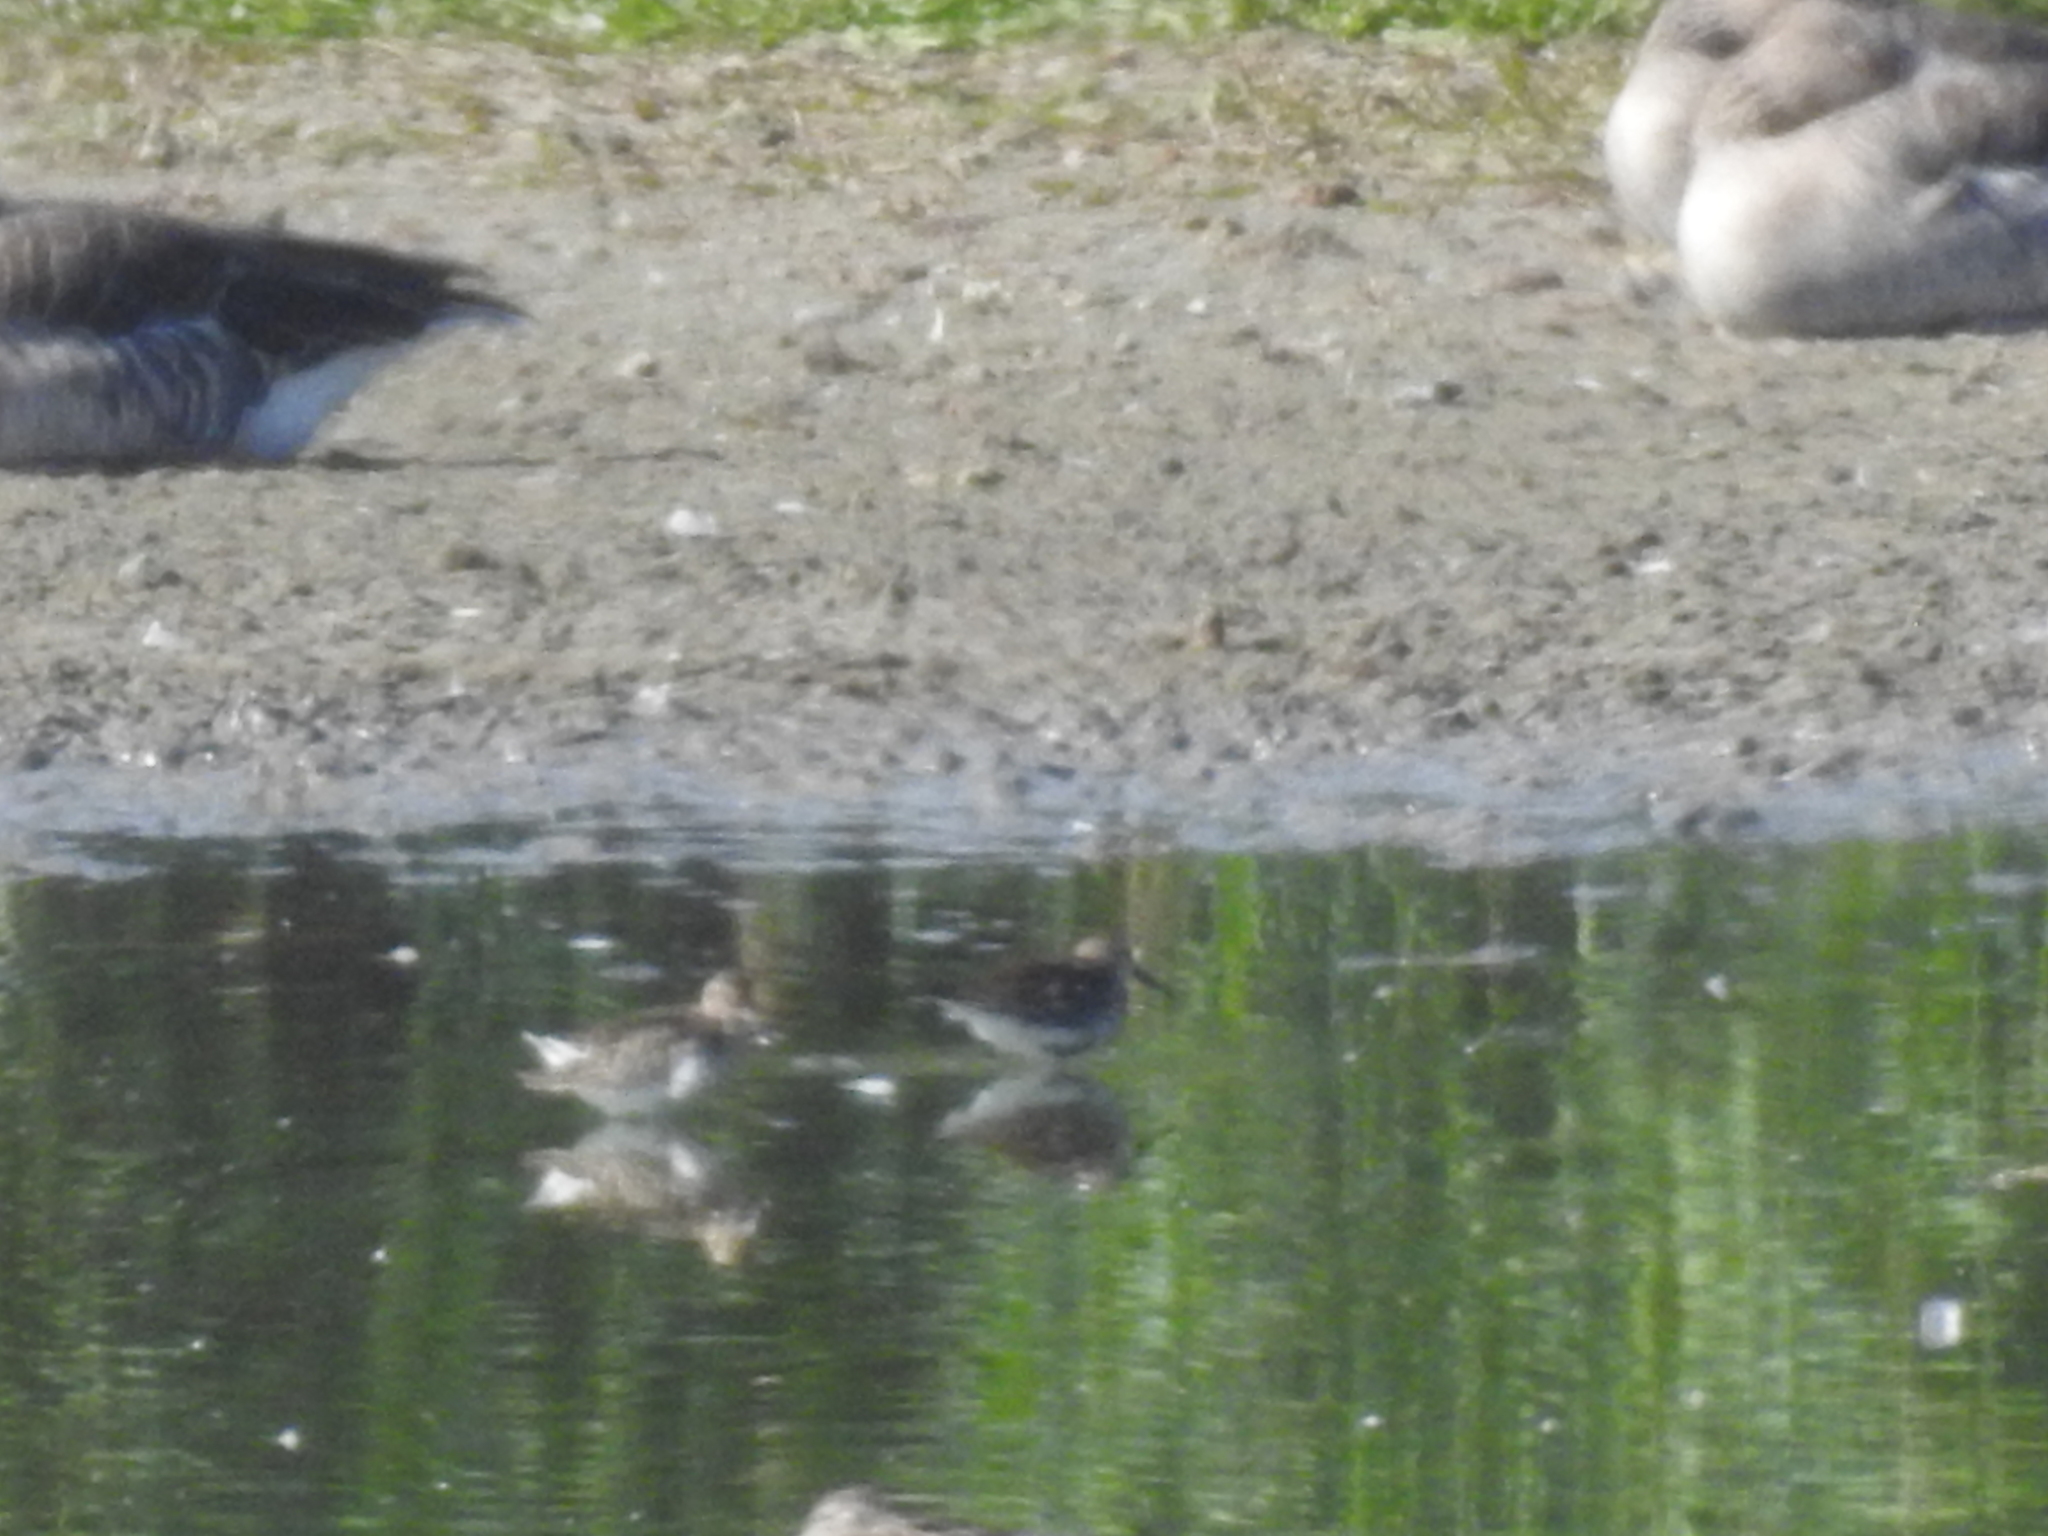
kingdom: Animalia
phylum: Chordata
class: Aves
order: Charadriiformes
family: Scolopacidae
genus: Calidris
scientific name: Calidris alpina
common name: Dunlin
